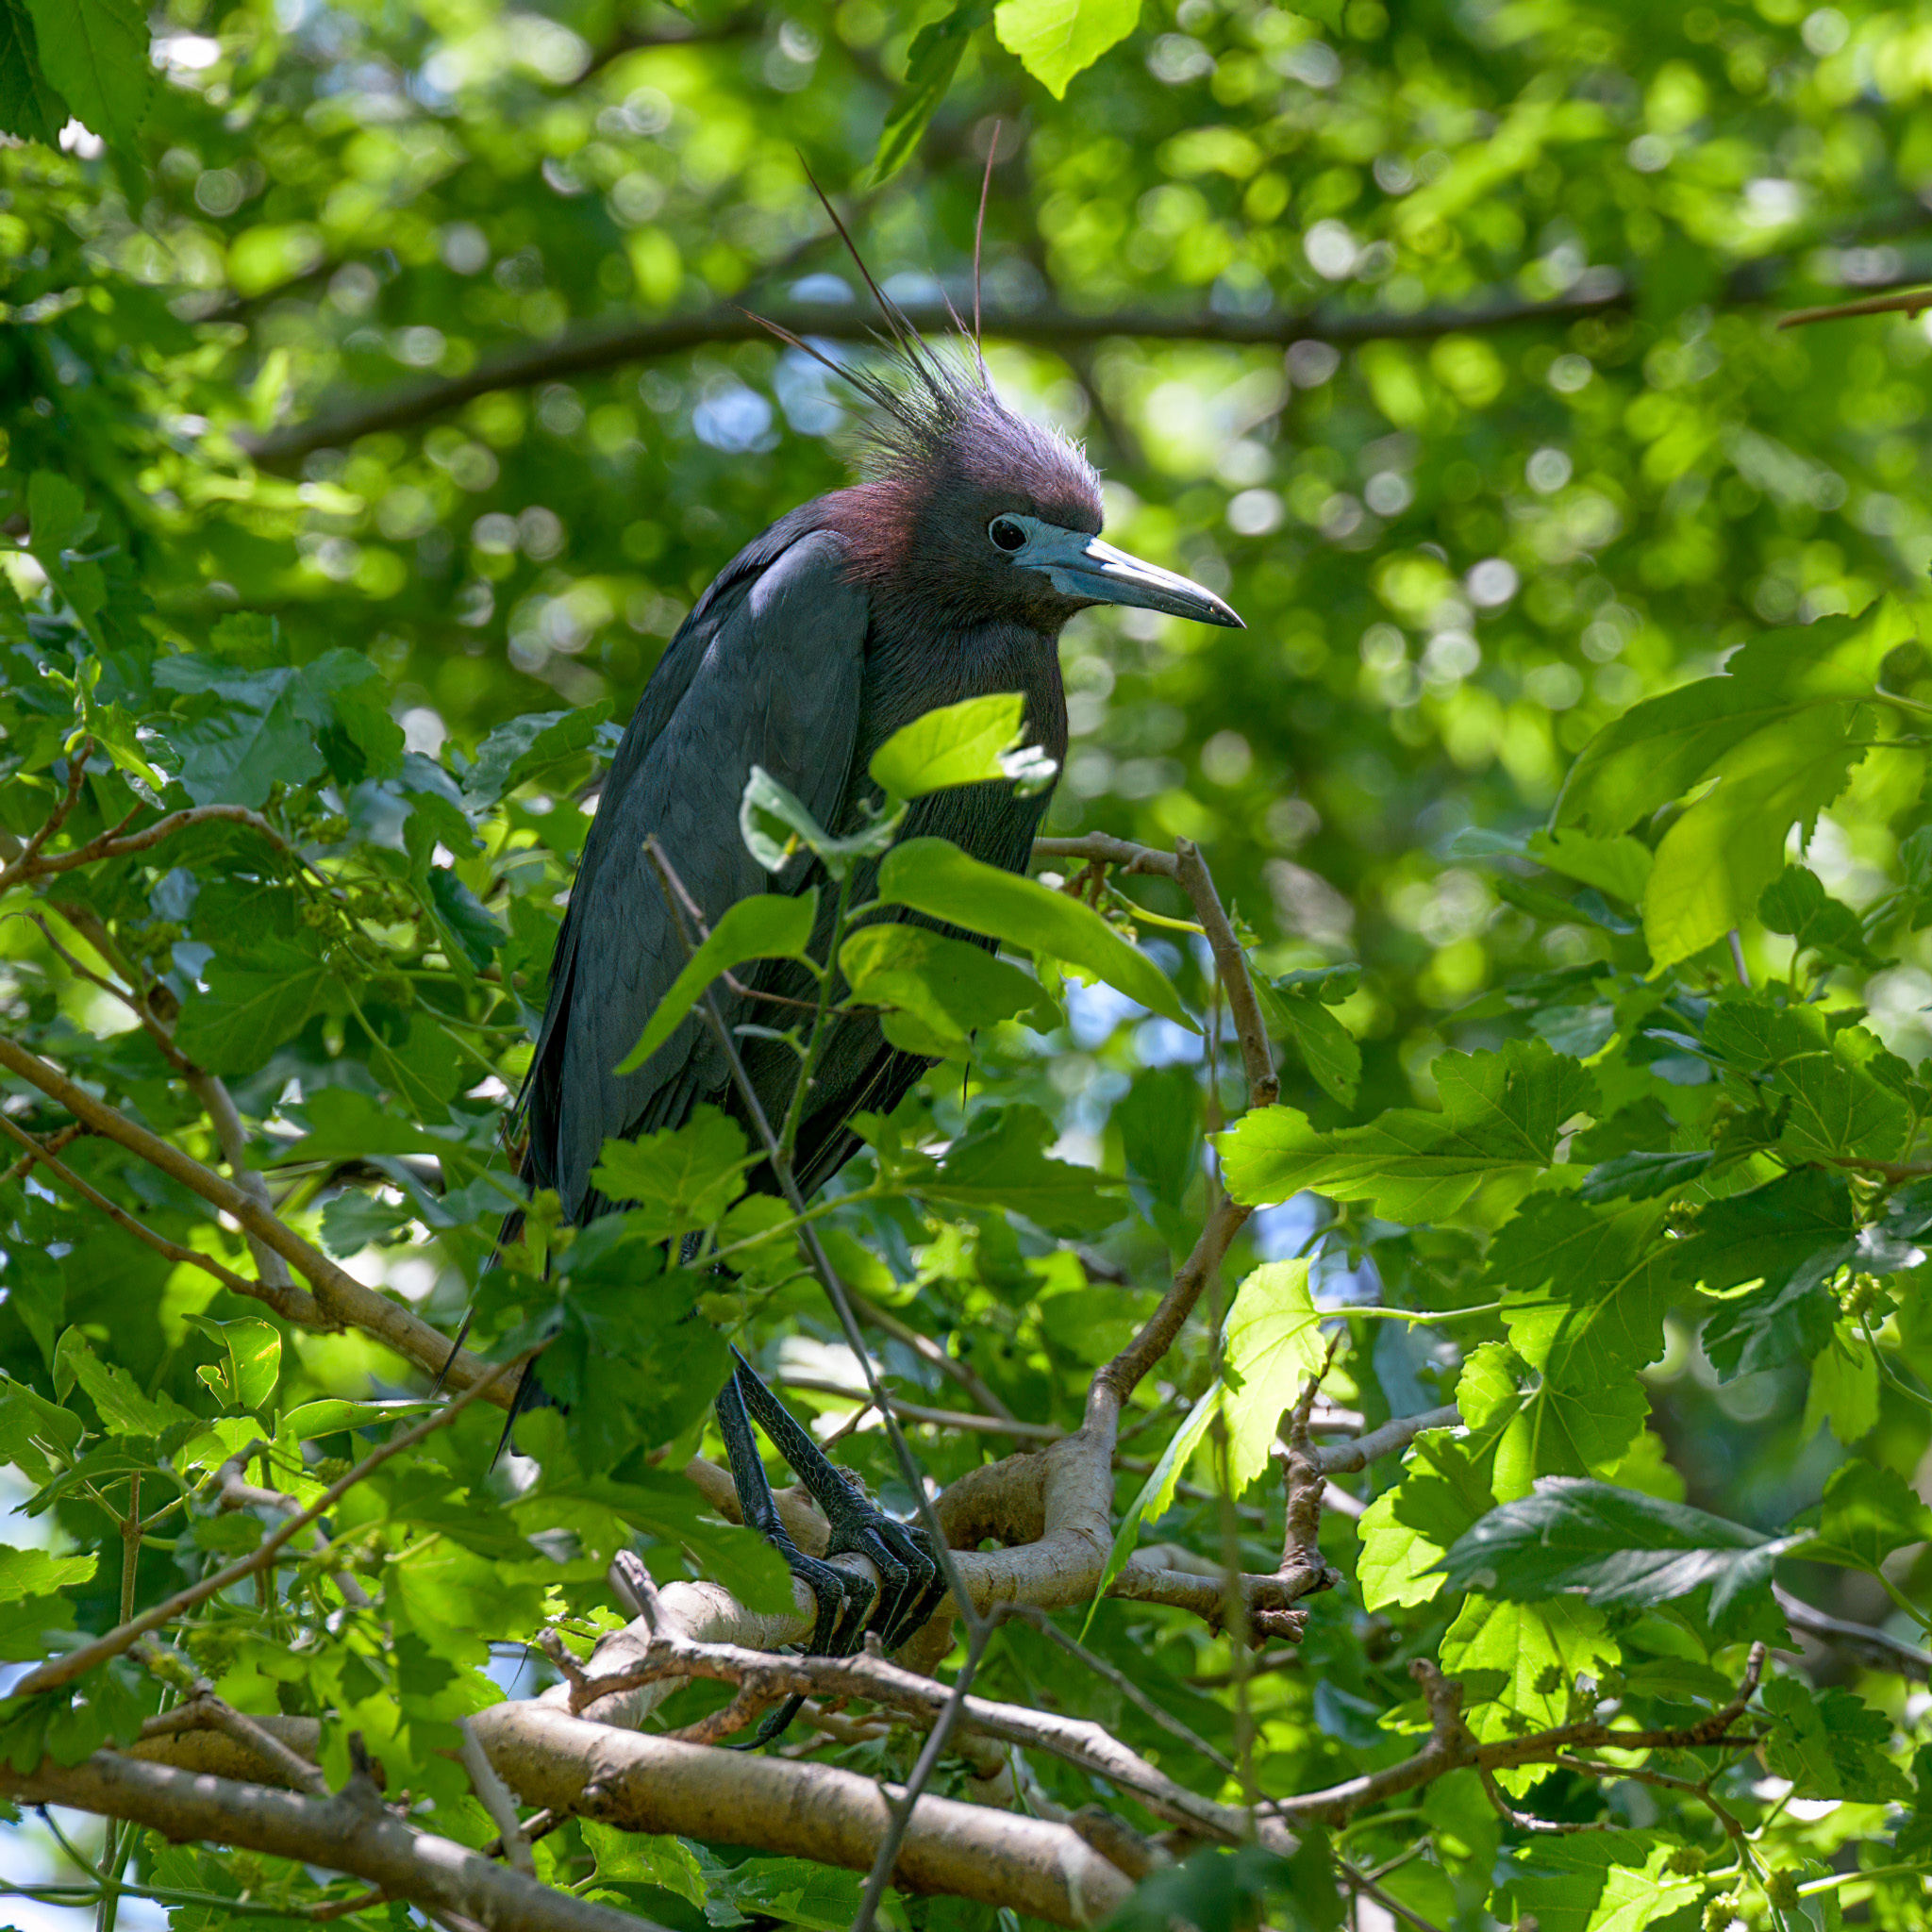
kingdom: Animalia
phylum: Chordata
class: Aves
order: Pelecaniformes
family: Ardeidae
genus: Egretta
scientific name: Egretta caerulea
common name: Little blue heron
